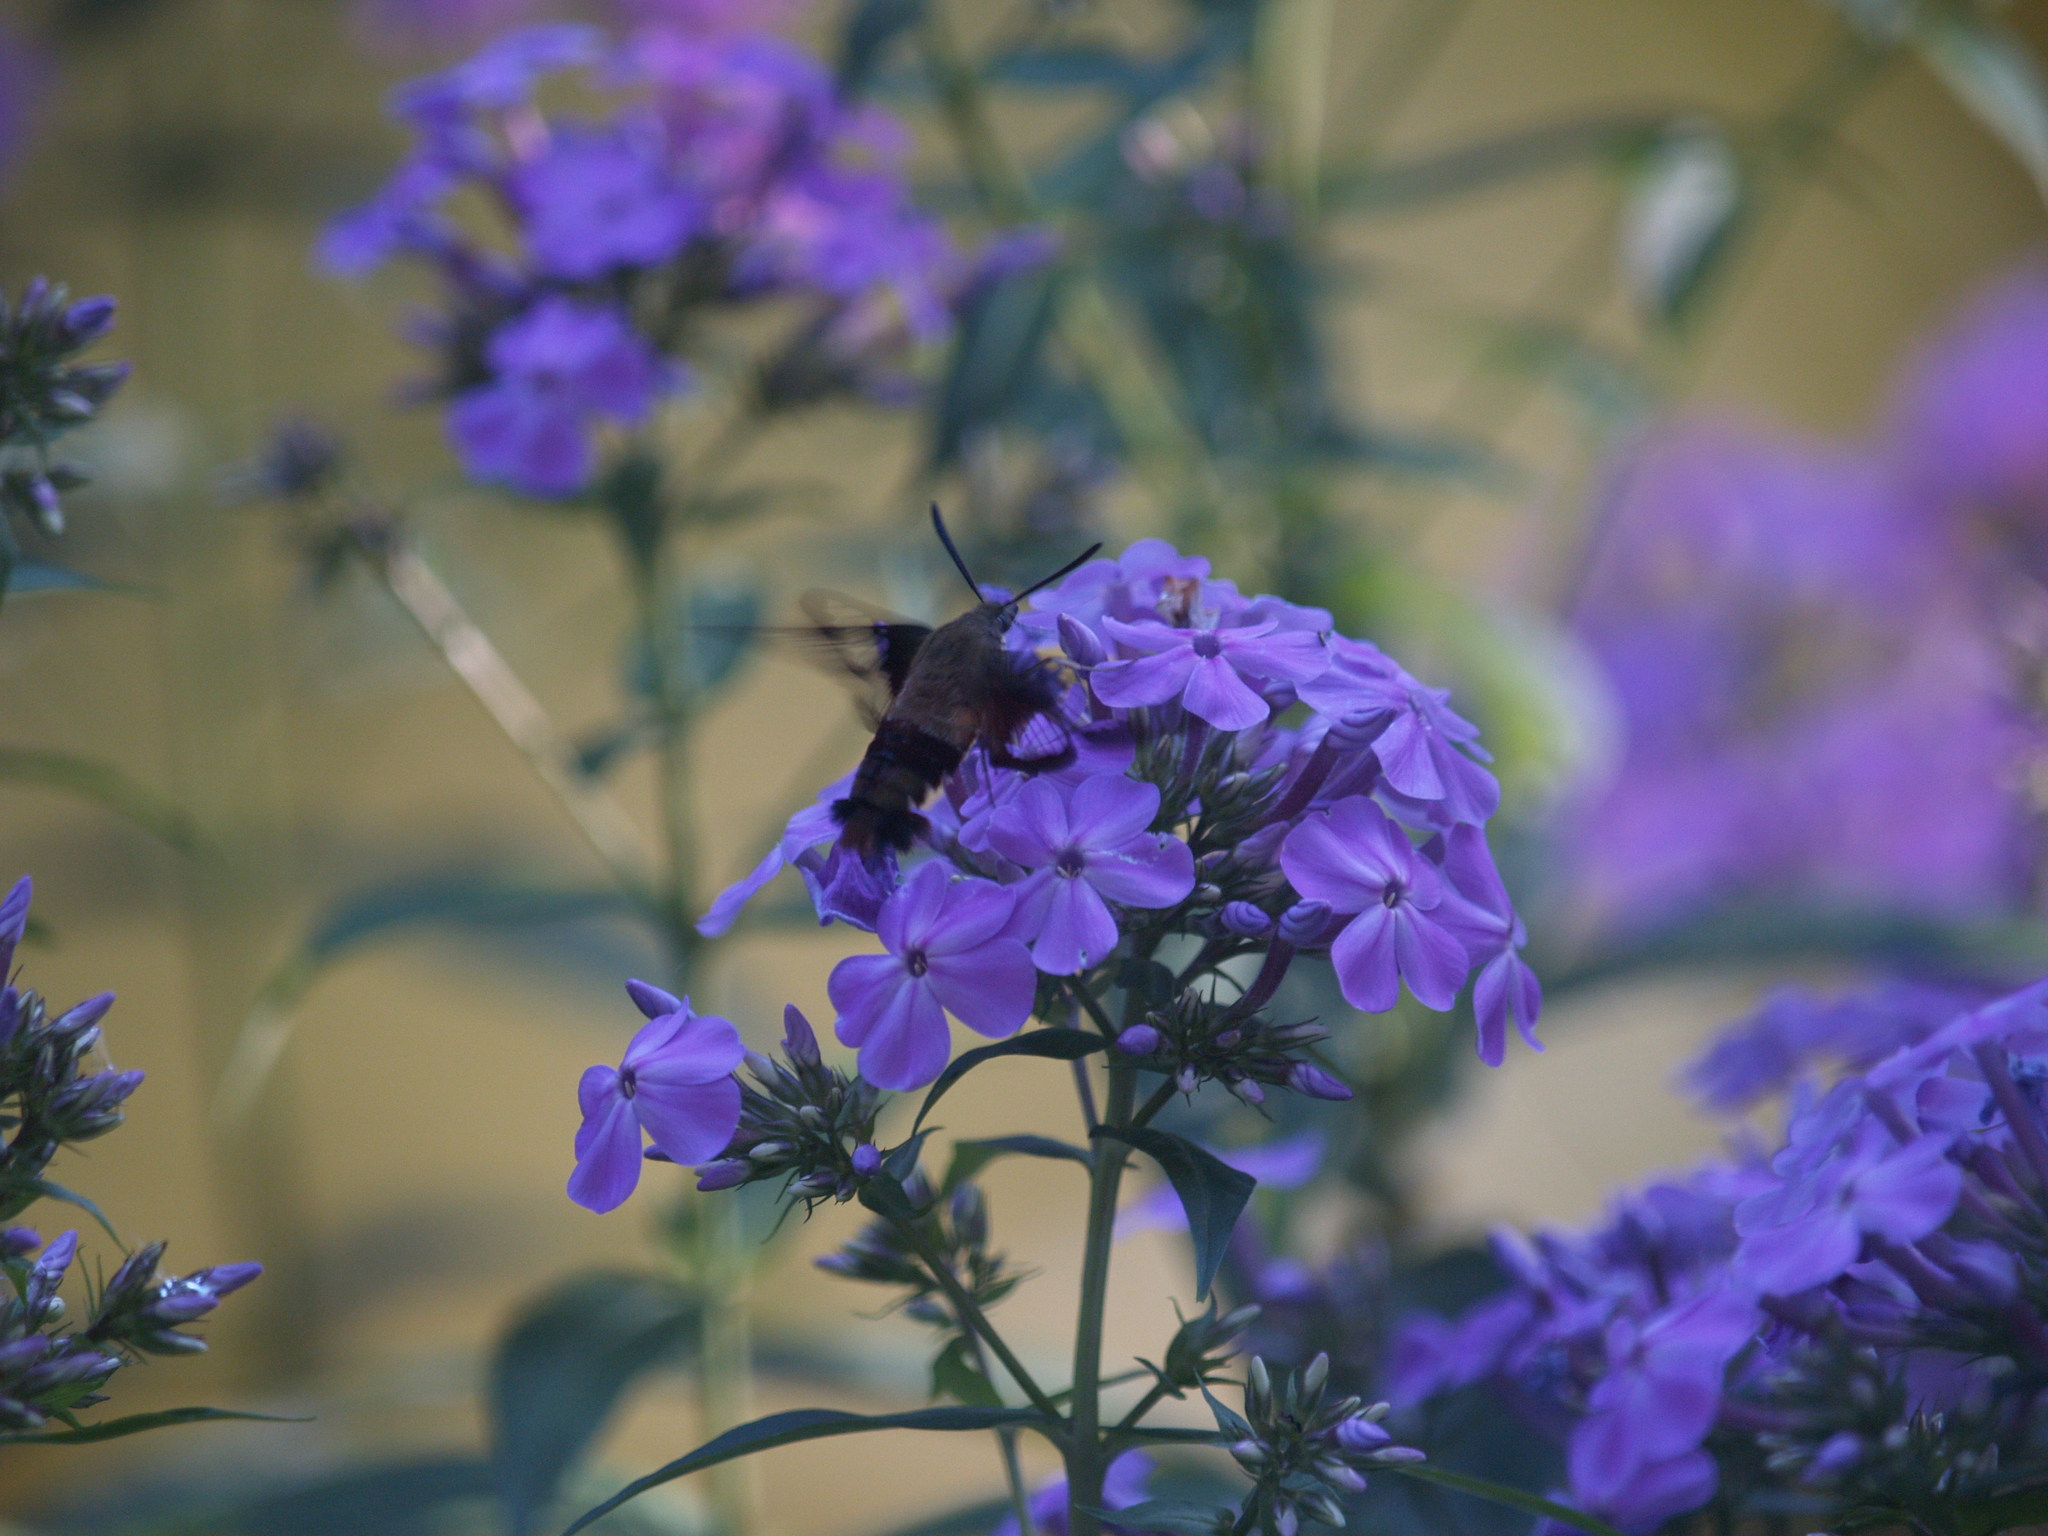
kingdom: Animalia
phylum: Arthropoda
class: Insecta
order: Lepidoptera
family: Sphingidae
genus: Hemaris
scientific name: Hemaris thysbe
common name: Common clear-wing
